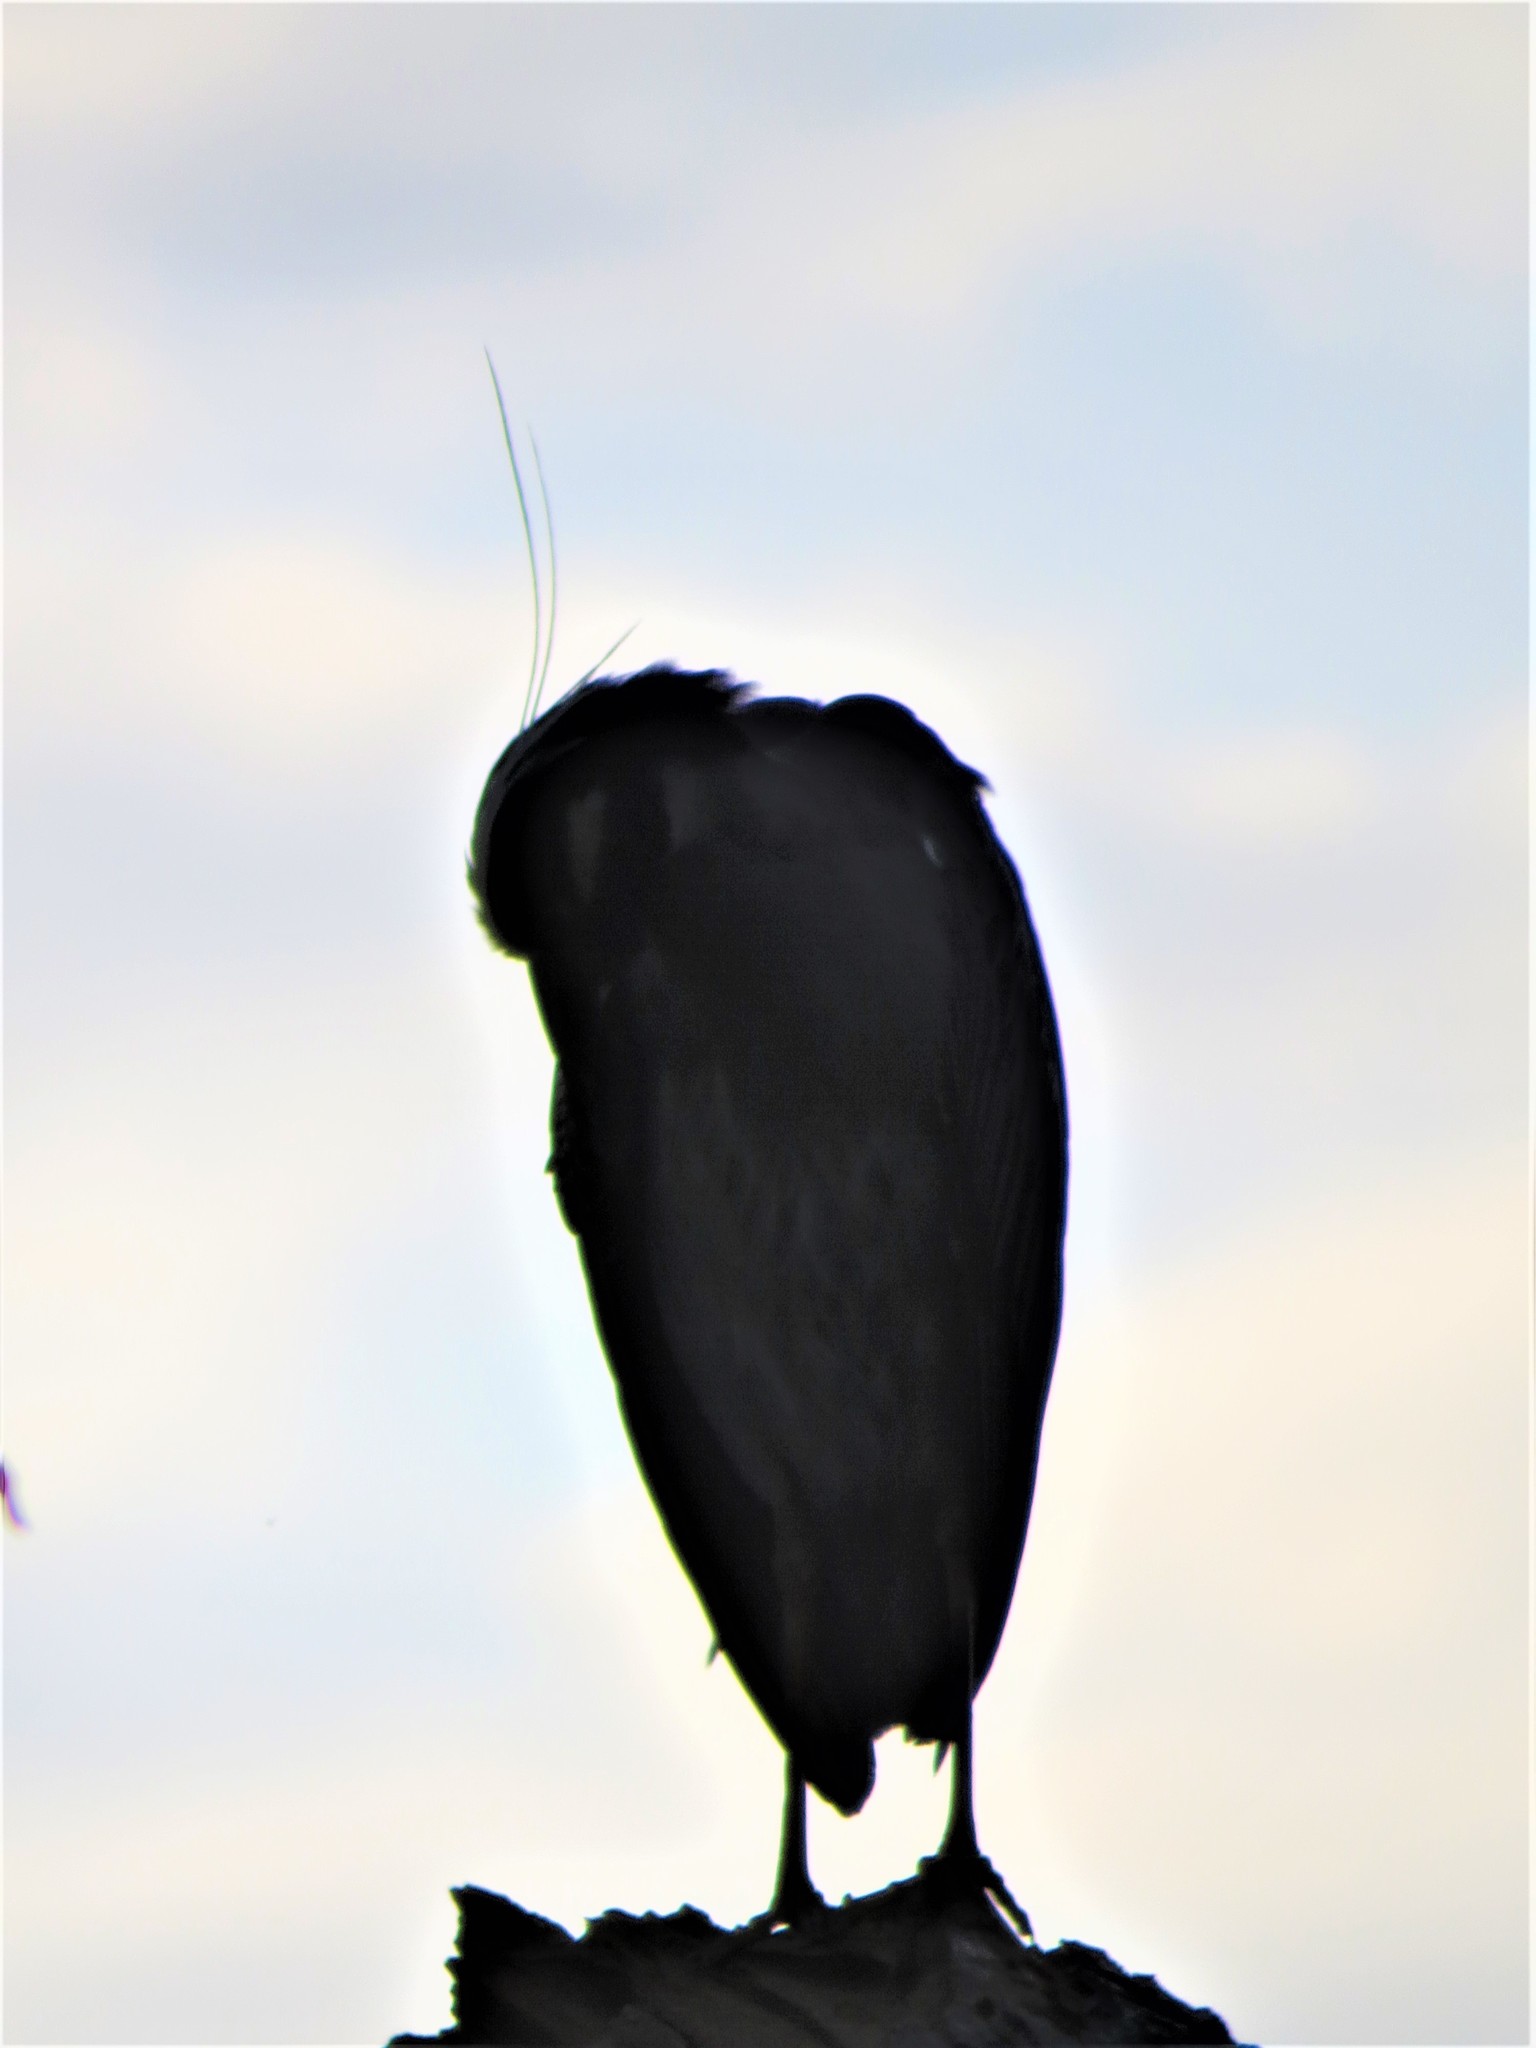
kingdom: Animalia
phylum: Chordata
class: Aves
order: Pelecaniformes
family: Ardeidae
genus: Nyctanassa
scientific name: Nyctanassa violacea
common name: Yellow-crowned night heron
